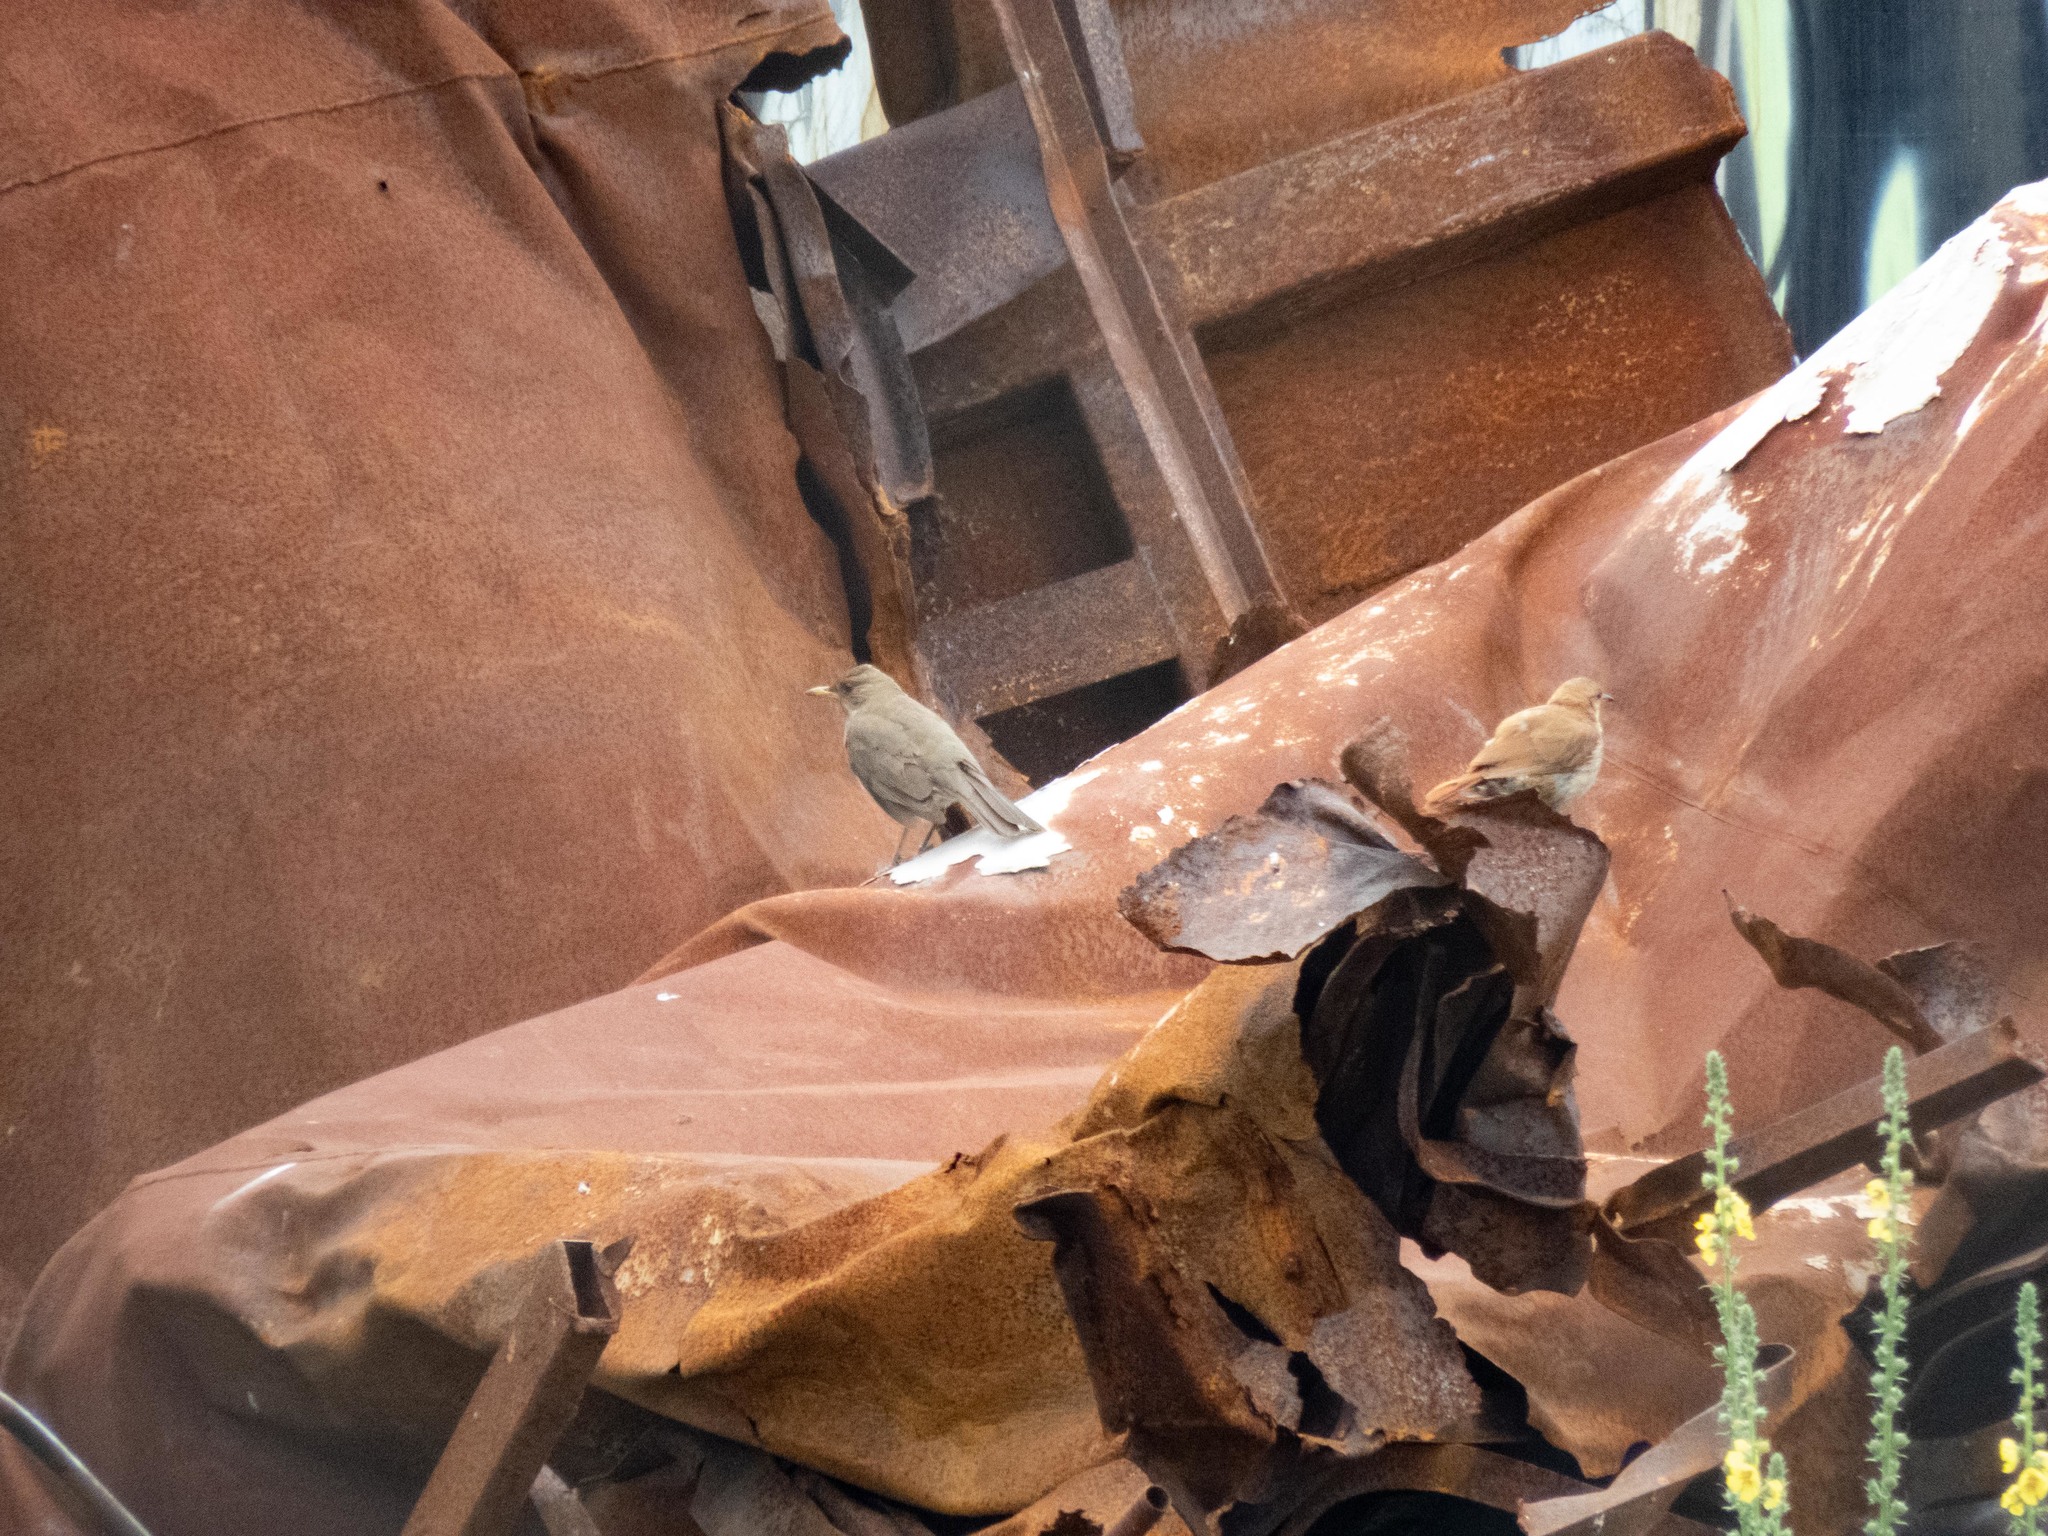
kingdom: Animalia
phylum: Chordata
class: Aves
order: Passeriformes
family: Turdidae
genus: Turdus
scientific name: Turdus amaurochalinus
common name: Creamy-bellied thrush
